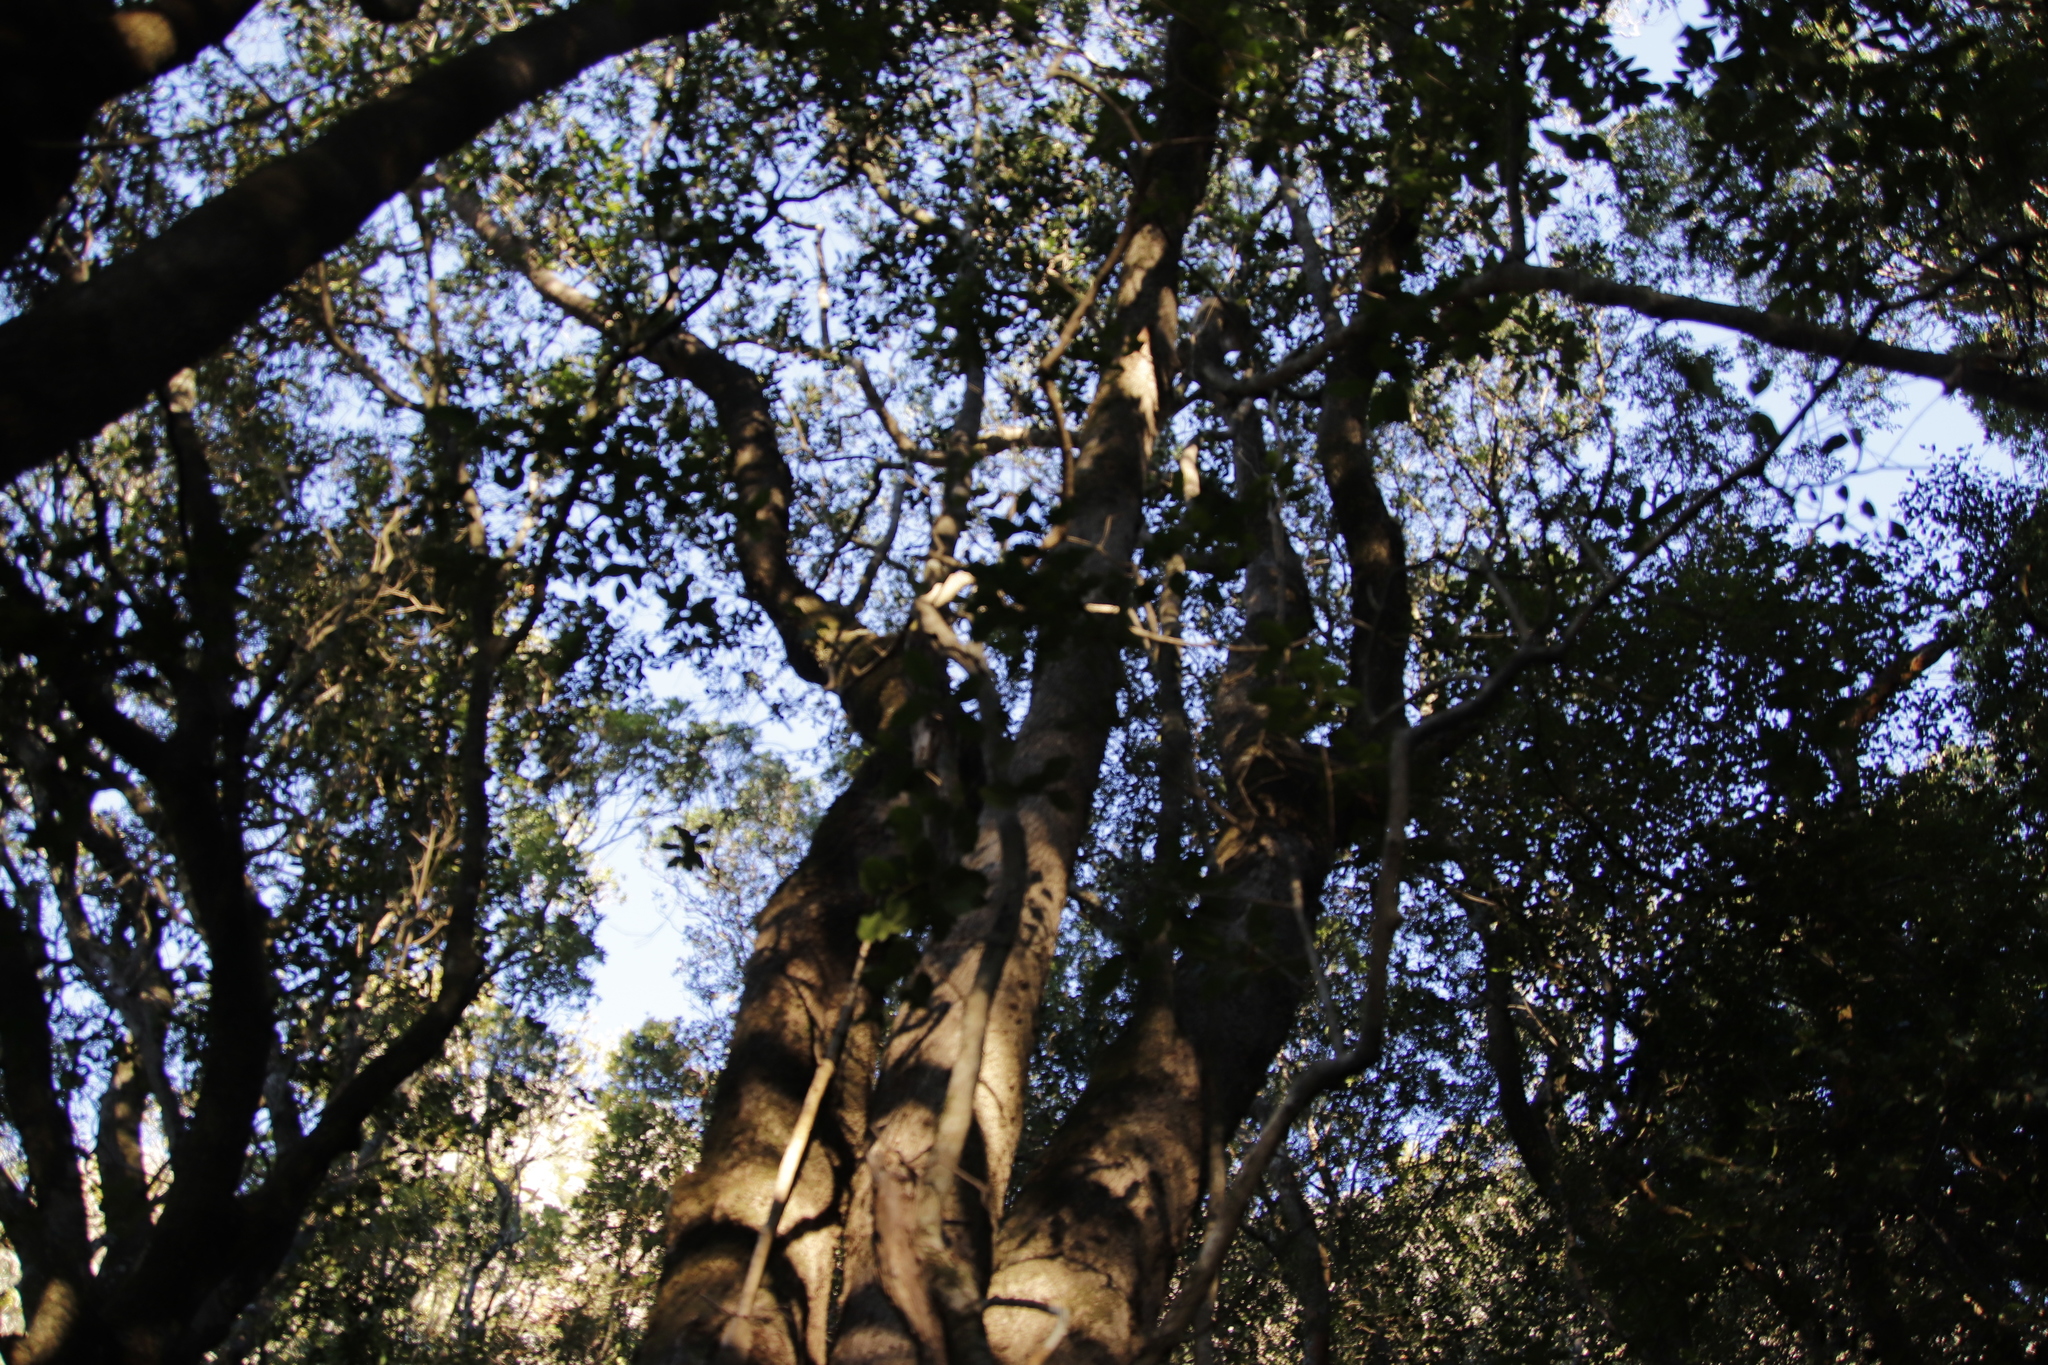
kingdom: Plantae
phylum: Tracheophyta
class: Magnoliopsida
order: Myrtales
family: Penaeaceae
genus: Olinia
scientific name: Olinia ventosa
